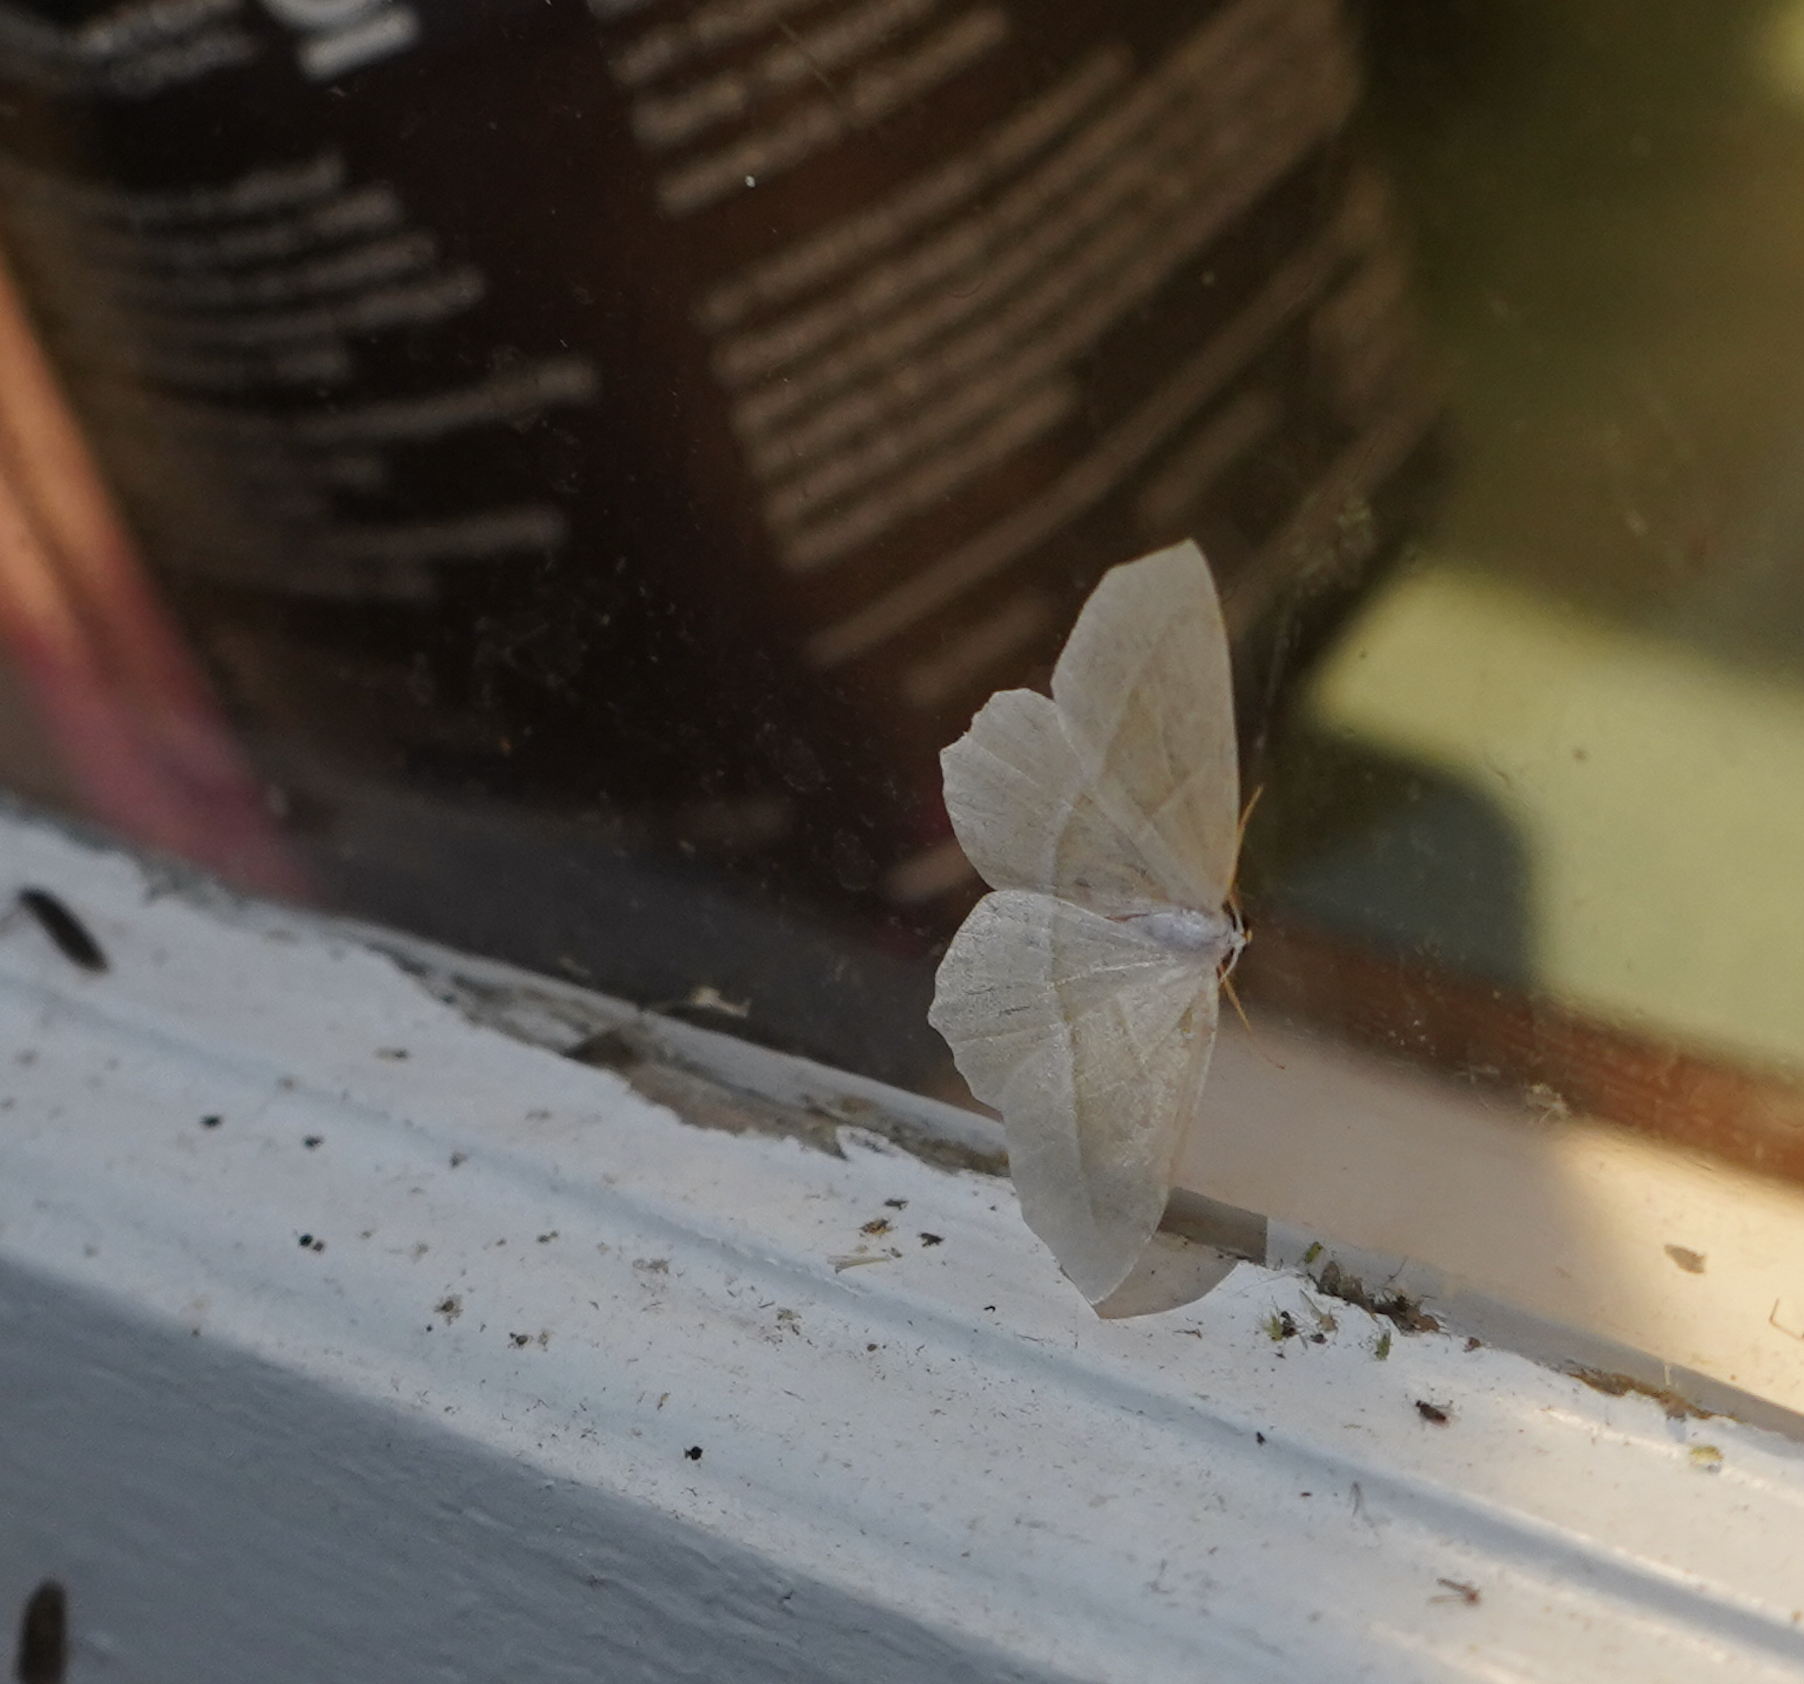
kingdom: Animalia
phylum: Arthropoda
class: Insecta
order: Lepidoptera
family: Geometridae
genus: Campaea
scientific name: Campaea perlata
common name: Fringed looper
